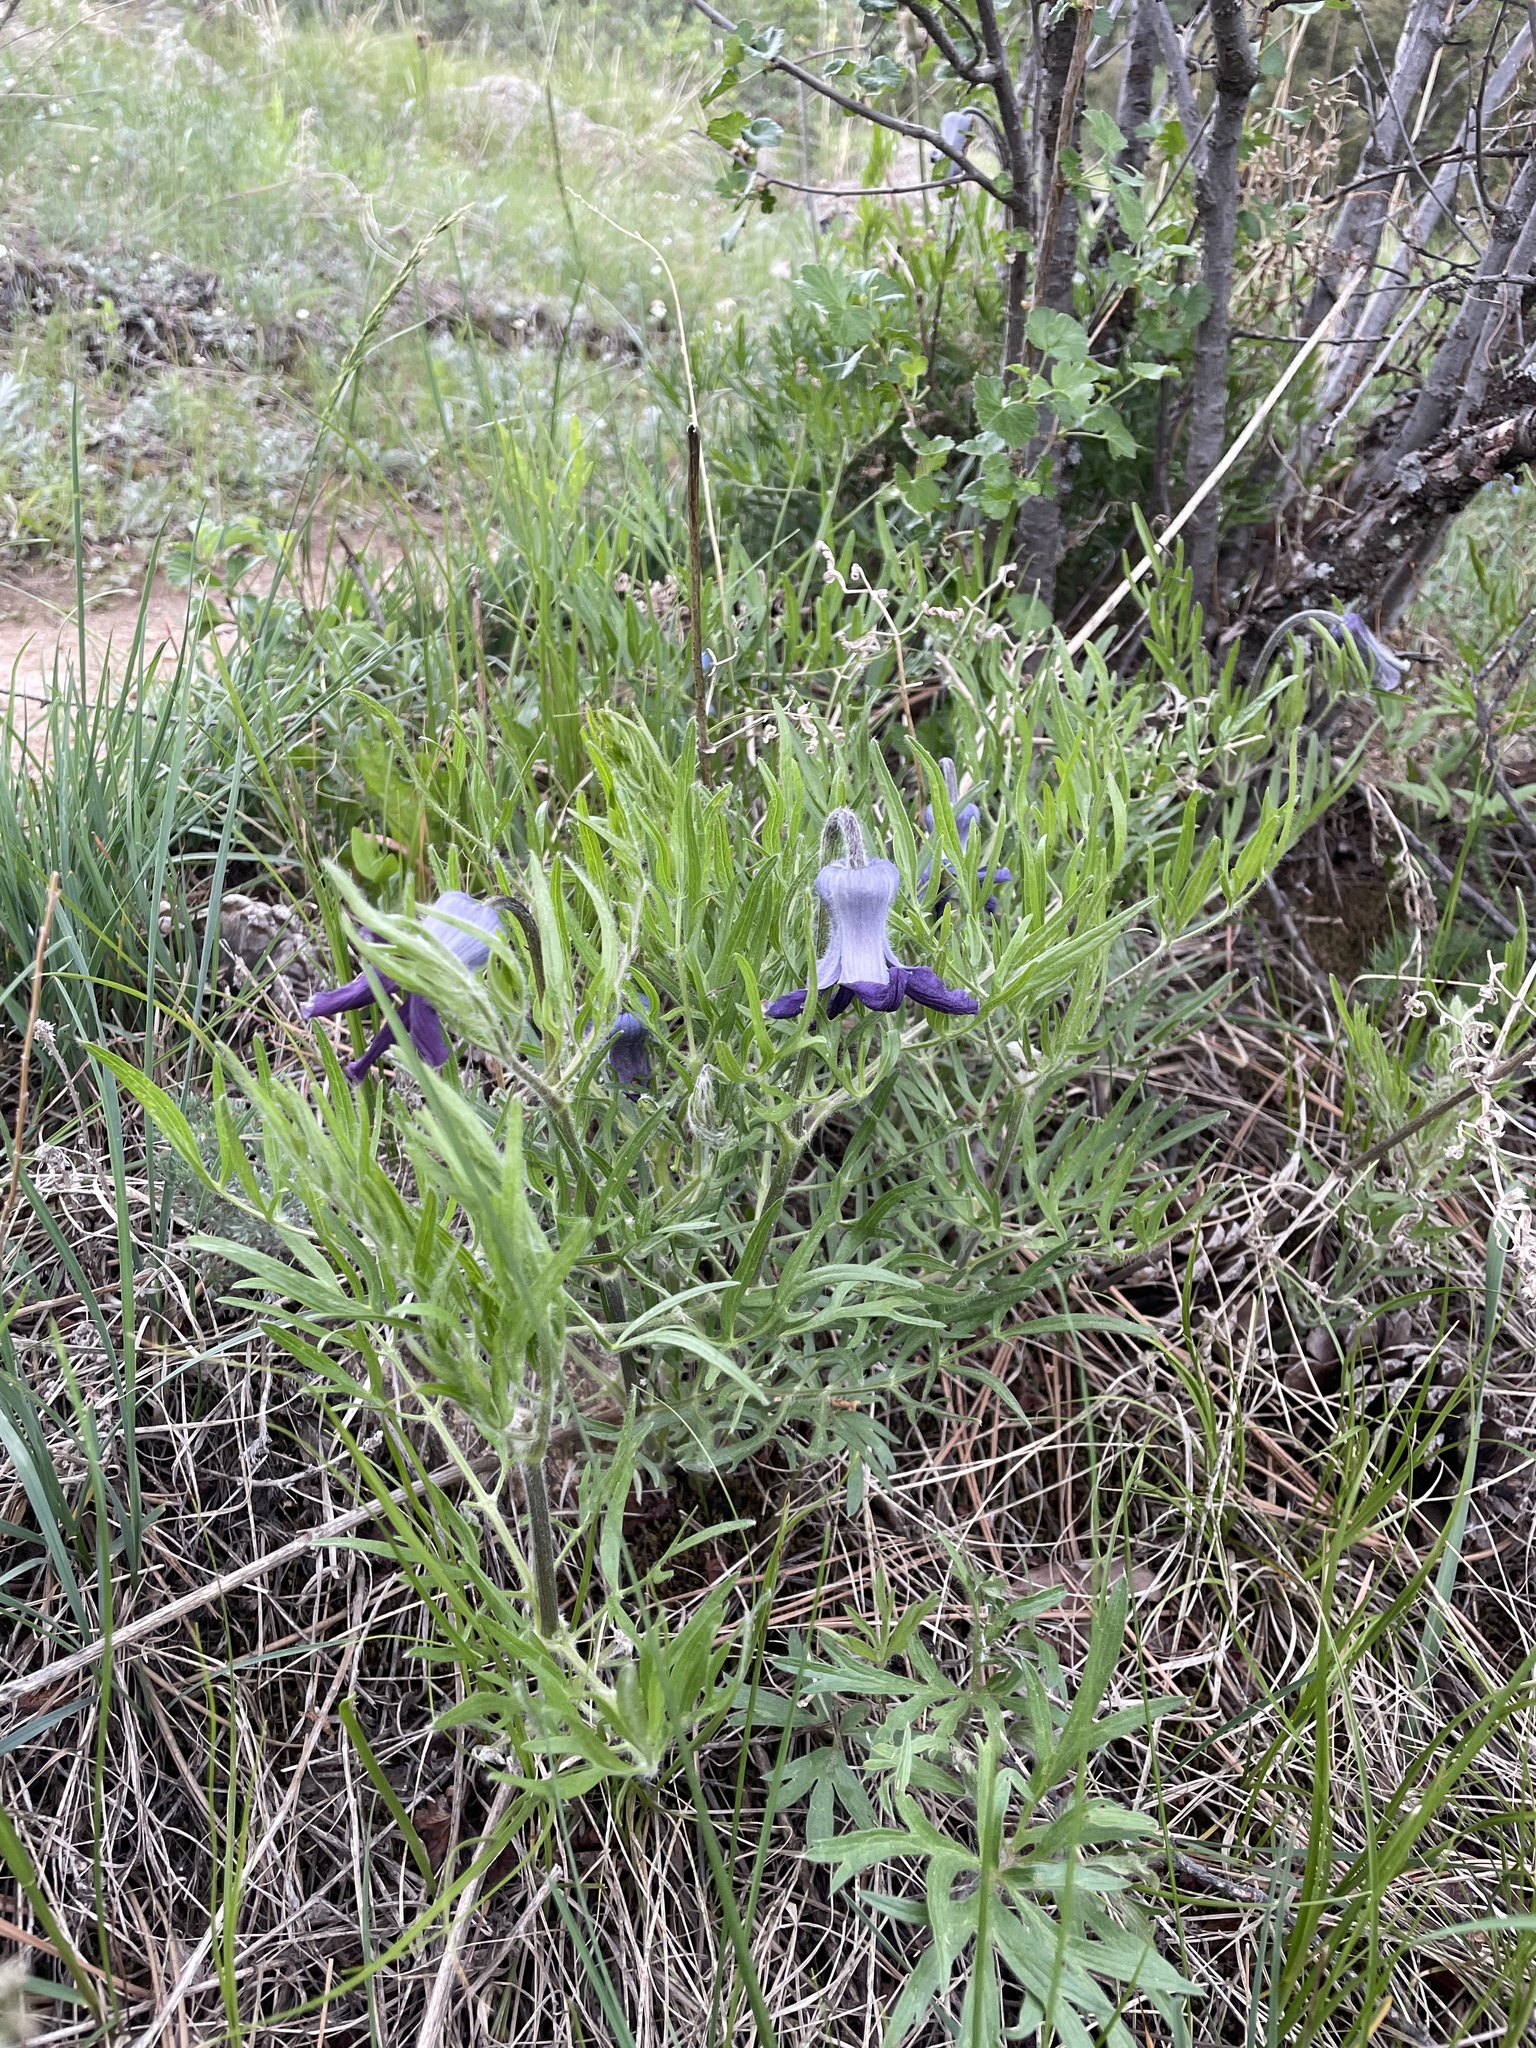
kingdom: Plantae
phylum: Tracheophyta
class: Magnoliopsida
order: Ranunculales
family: Ranunculaceae
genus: Clematis
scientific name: Clematis hirsutissima
